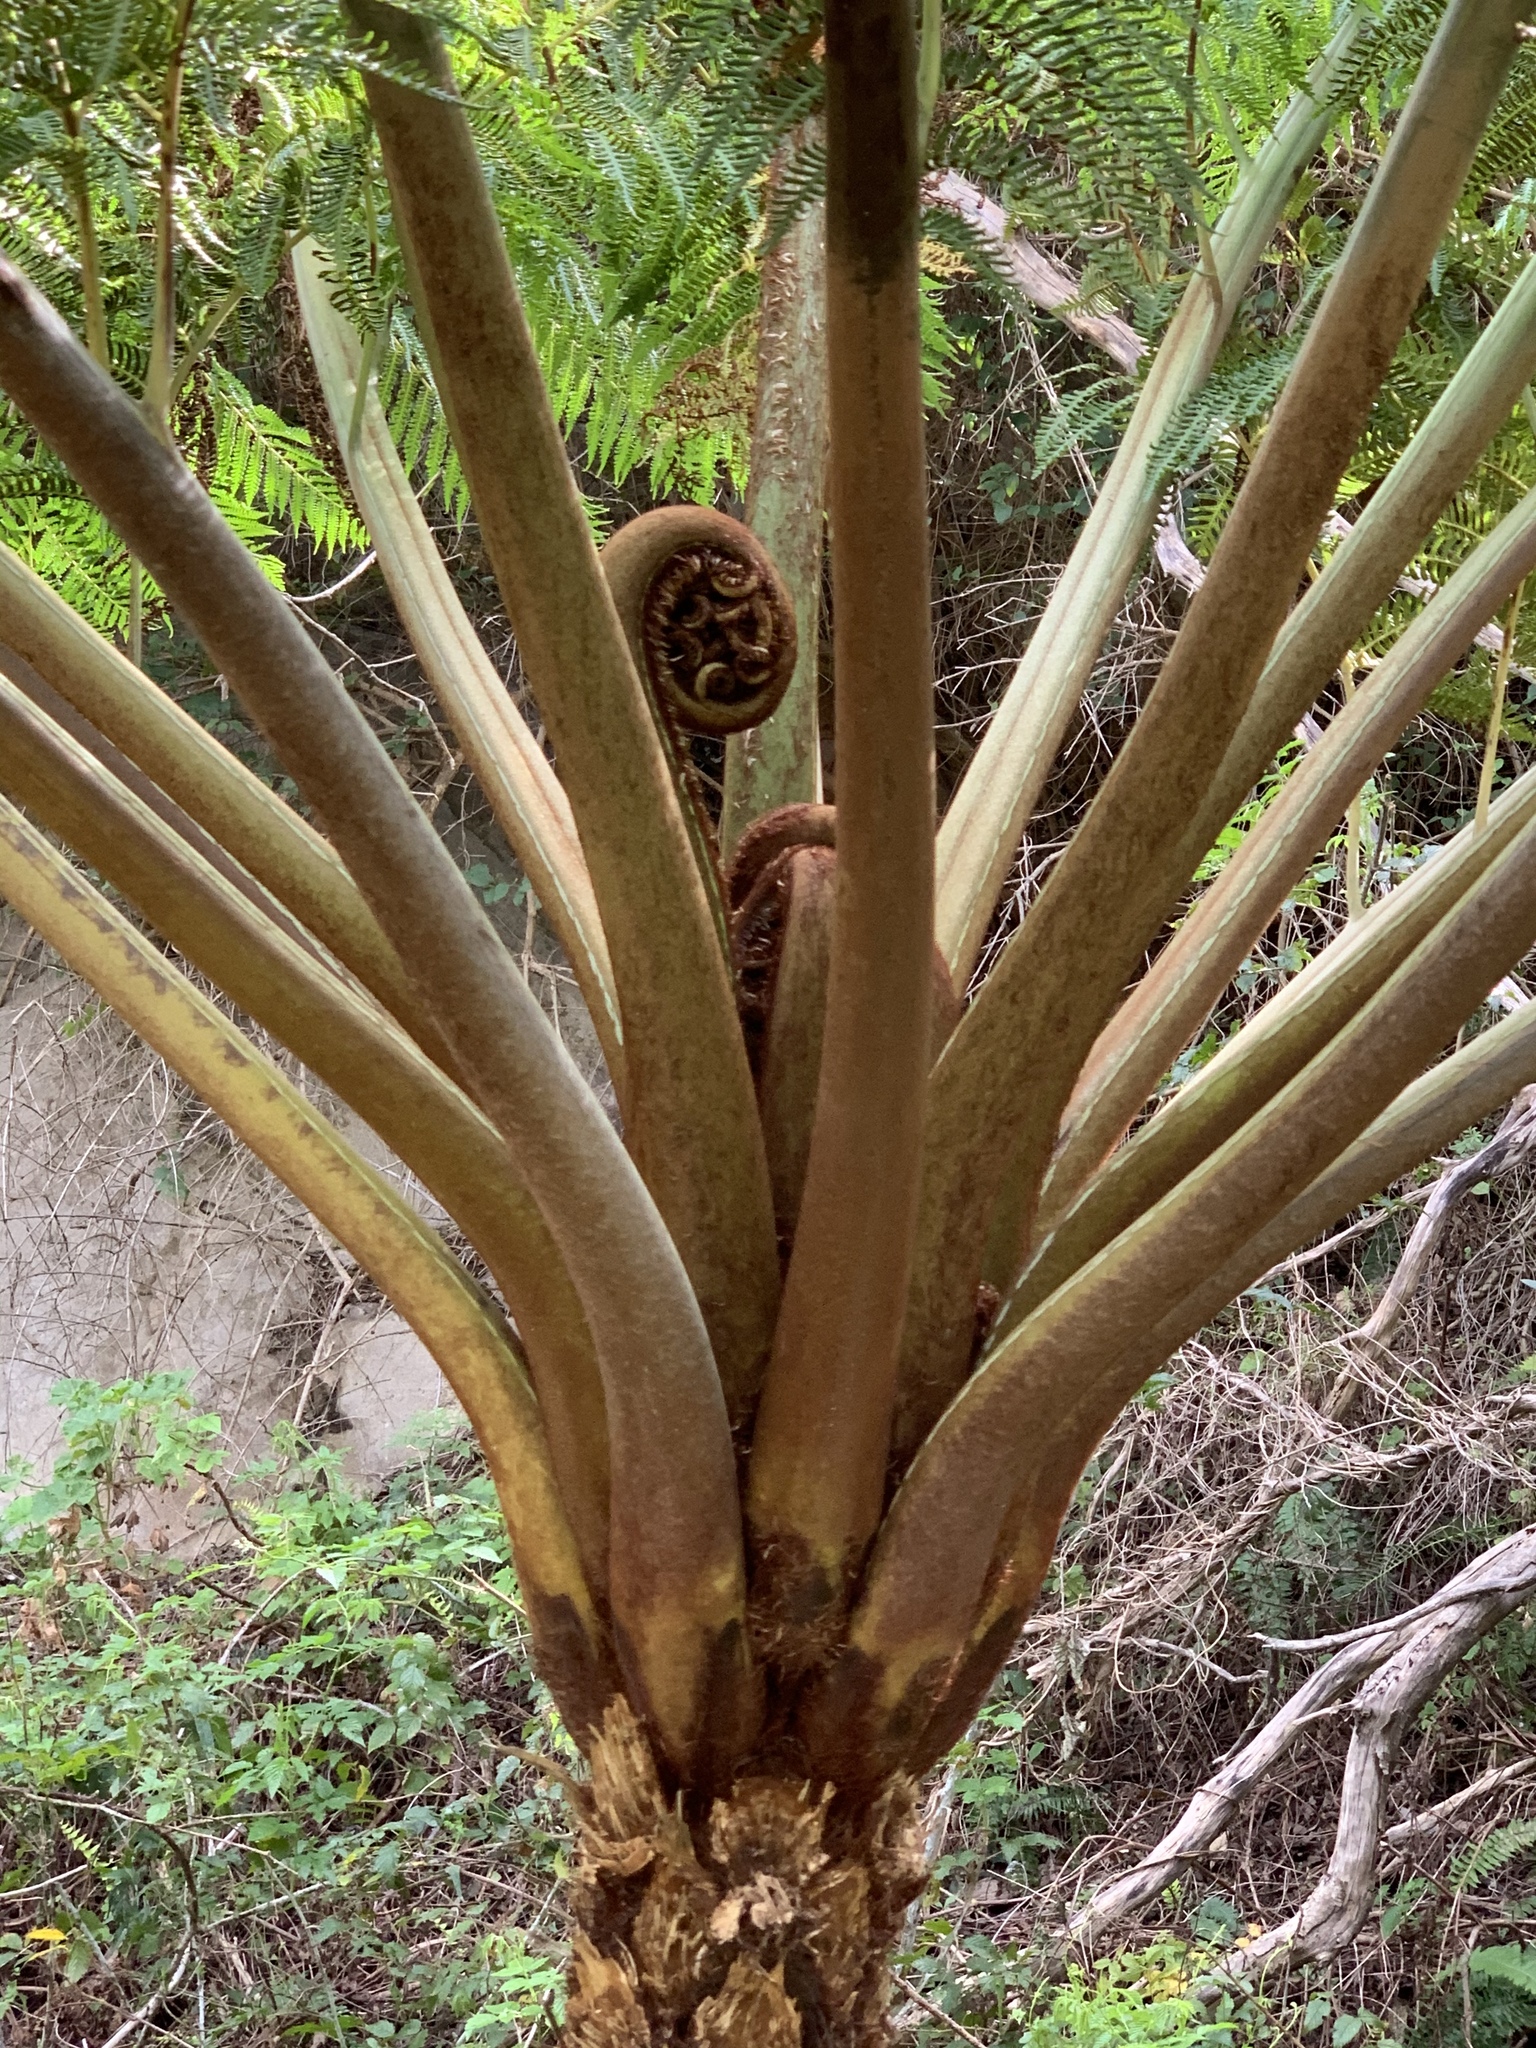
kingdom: Plantae
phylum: Tracheophyta
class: Polypodiopsida
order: Cyatheales
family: Cyatheaceae
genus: Sphaeropteris
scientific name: Sphaeropteris cooperi
